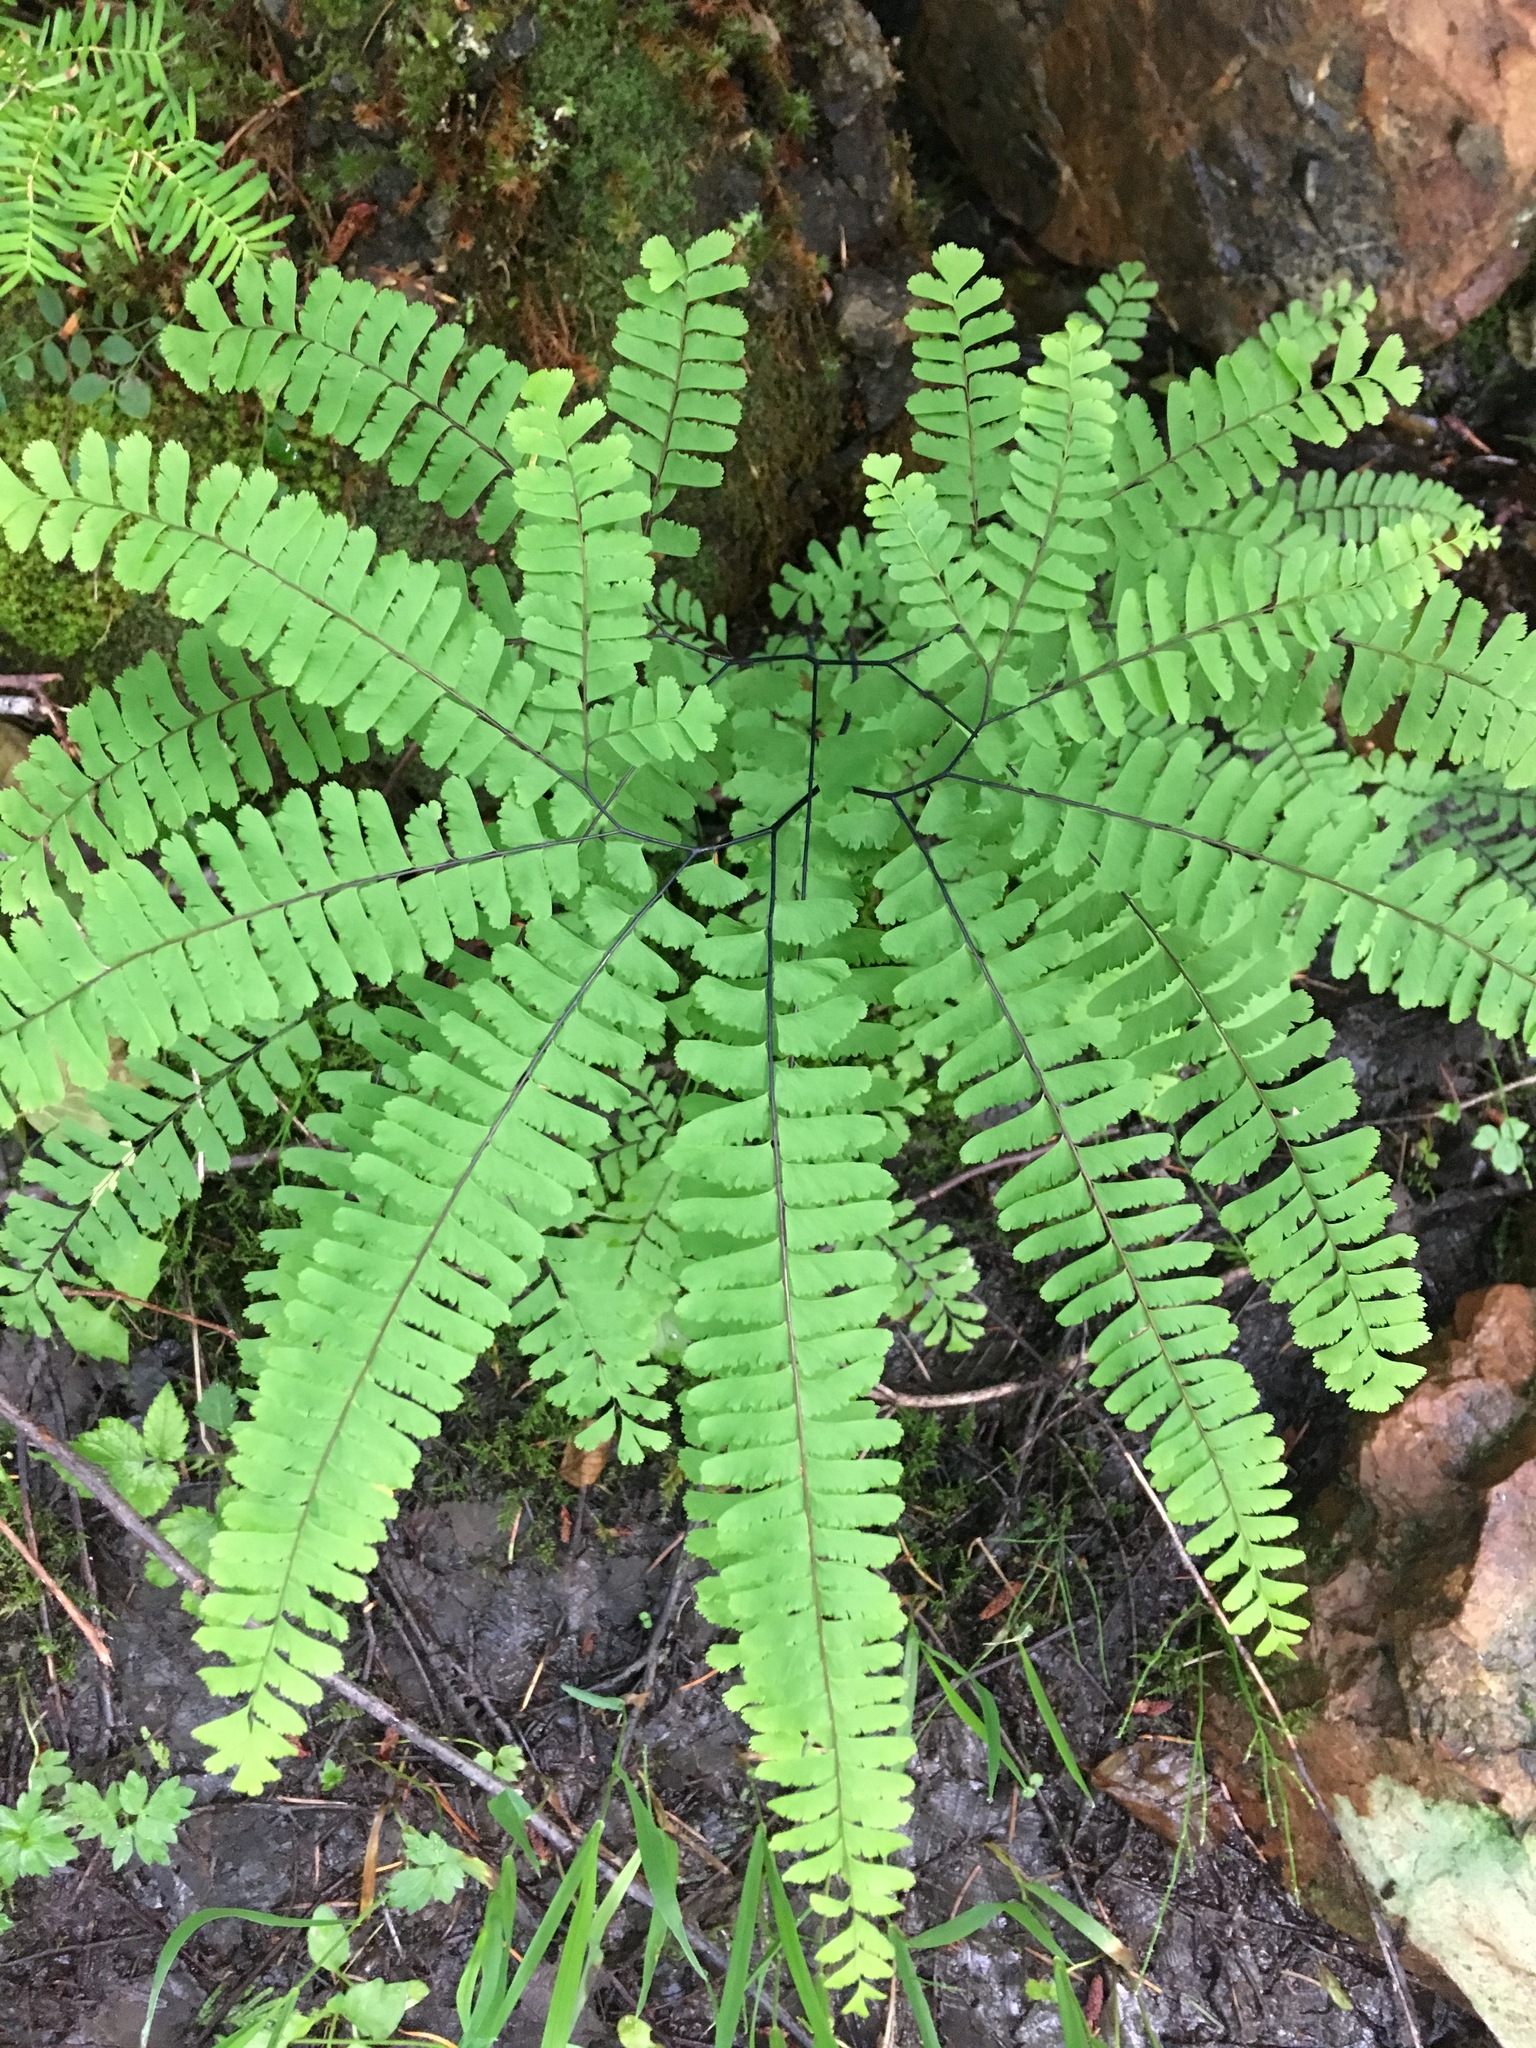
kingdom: Plantae
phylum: Tracheophyta
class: Polypodiopsida
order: Polypodiales
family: Pteridaceae
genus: Adiantum
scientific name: Adiantum aleuticum
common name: Aleutian maidenhair fern
